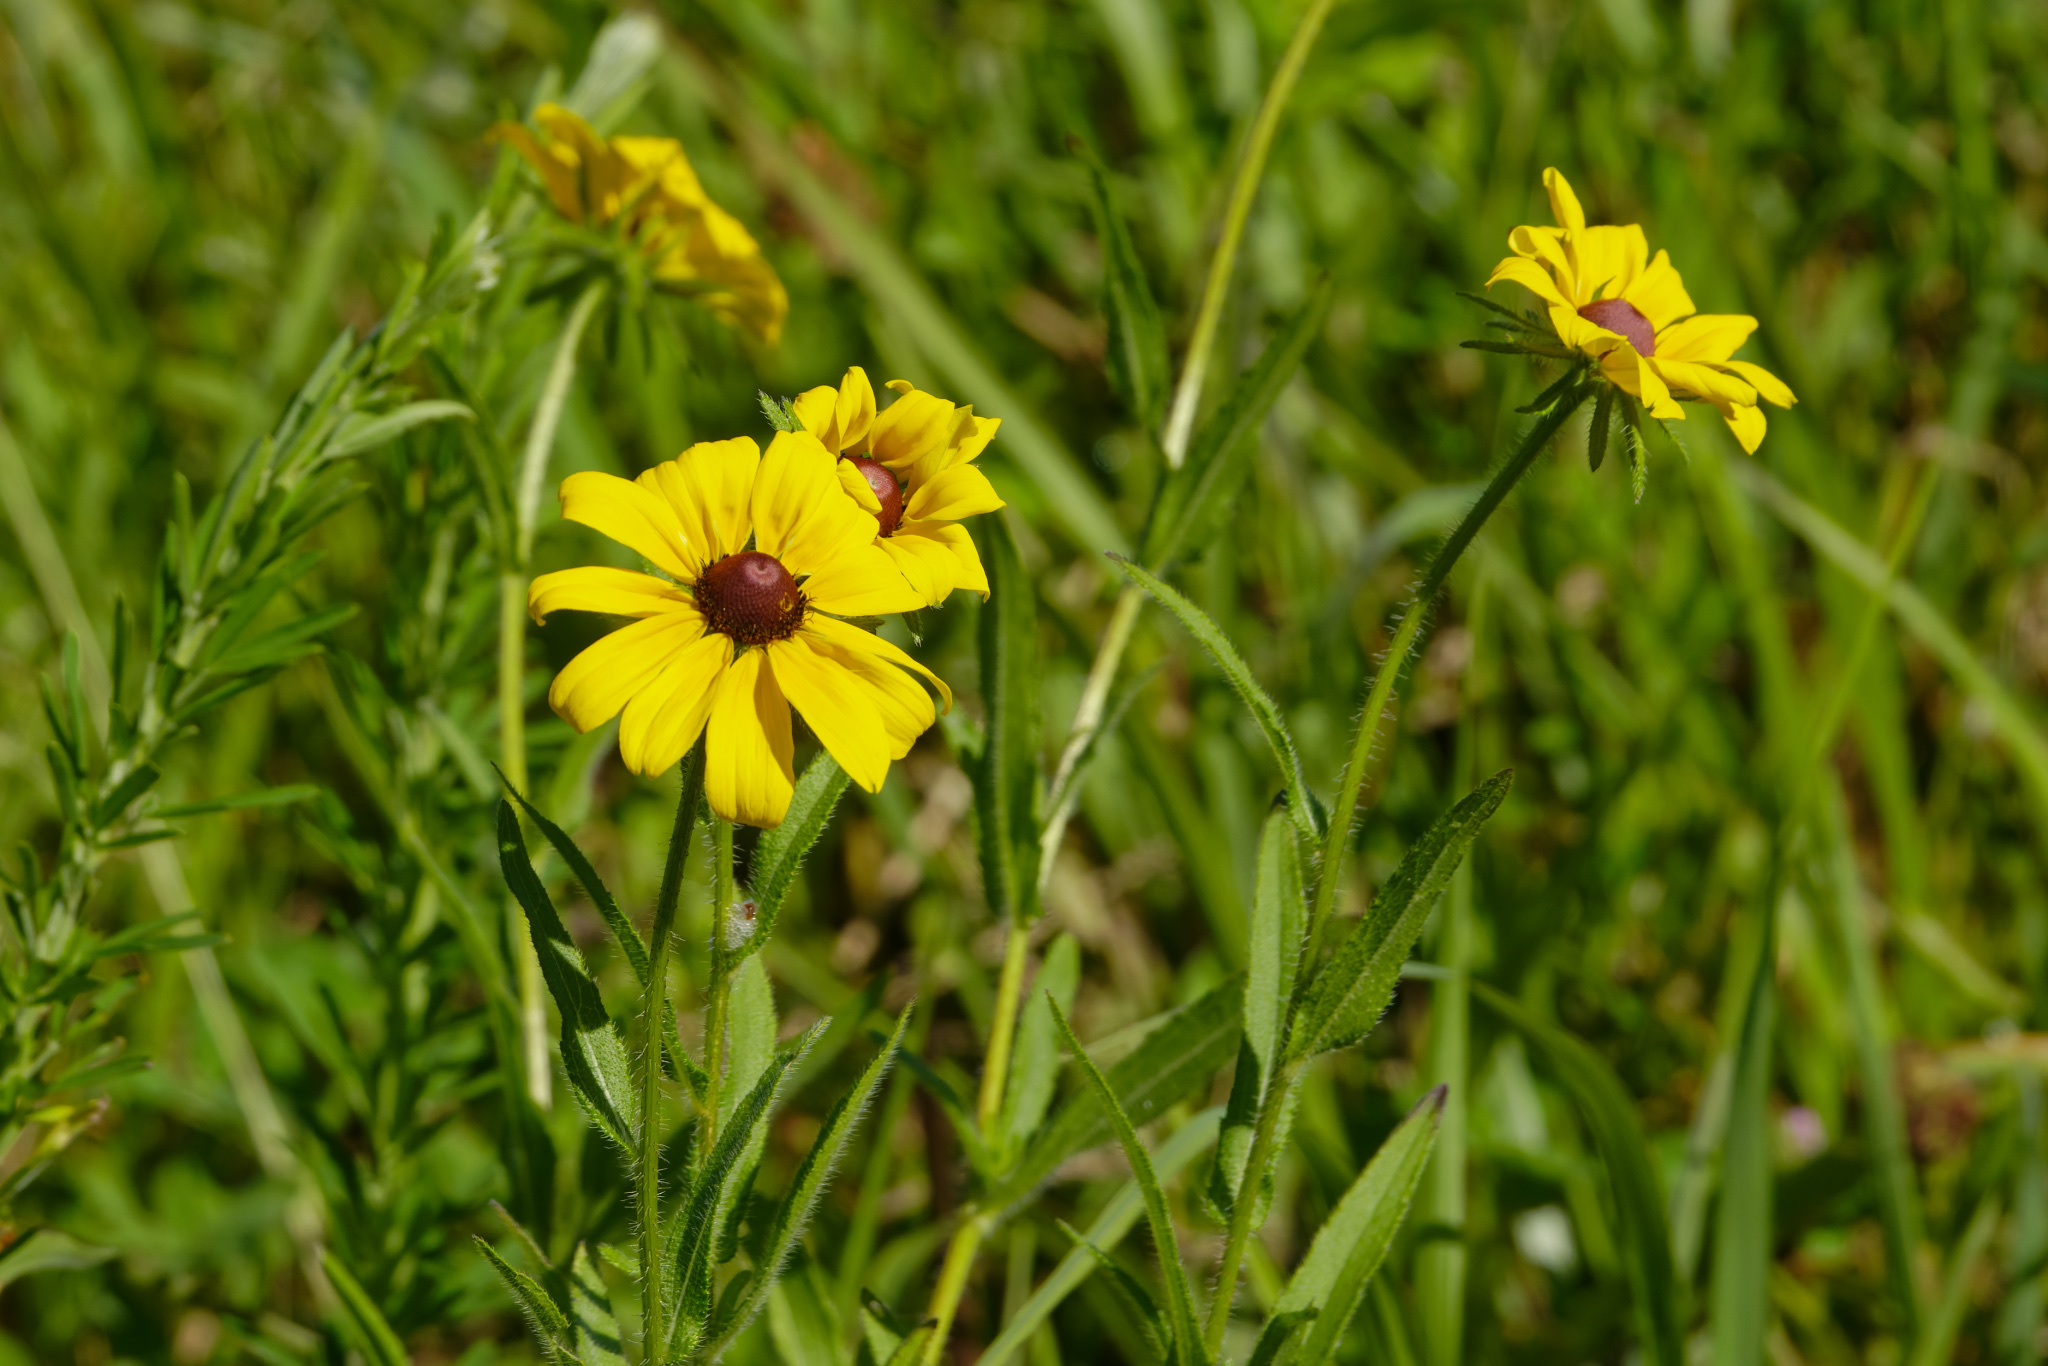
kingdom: Plantae
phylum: Tracheophyta
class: Magnoliopsida
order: Asterales
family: Asteraceae
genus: Rudbeckia
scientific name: Rudbeckia hirta
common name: Black-eyed-susan
